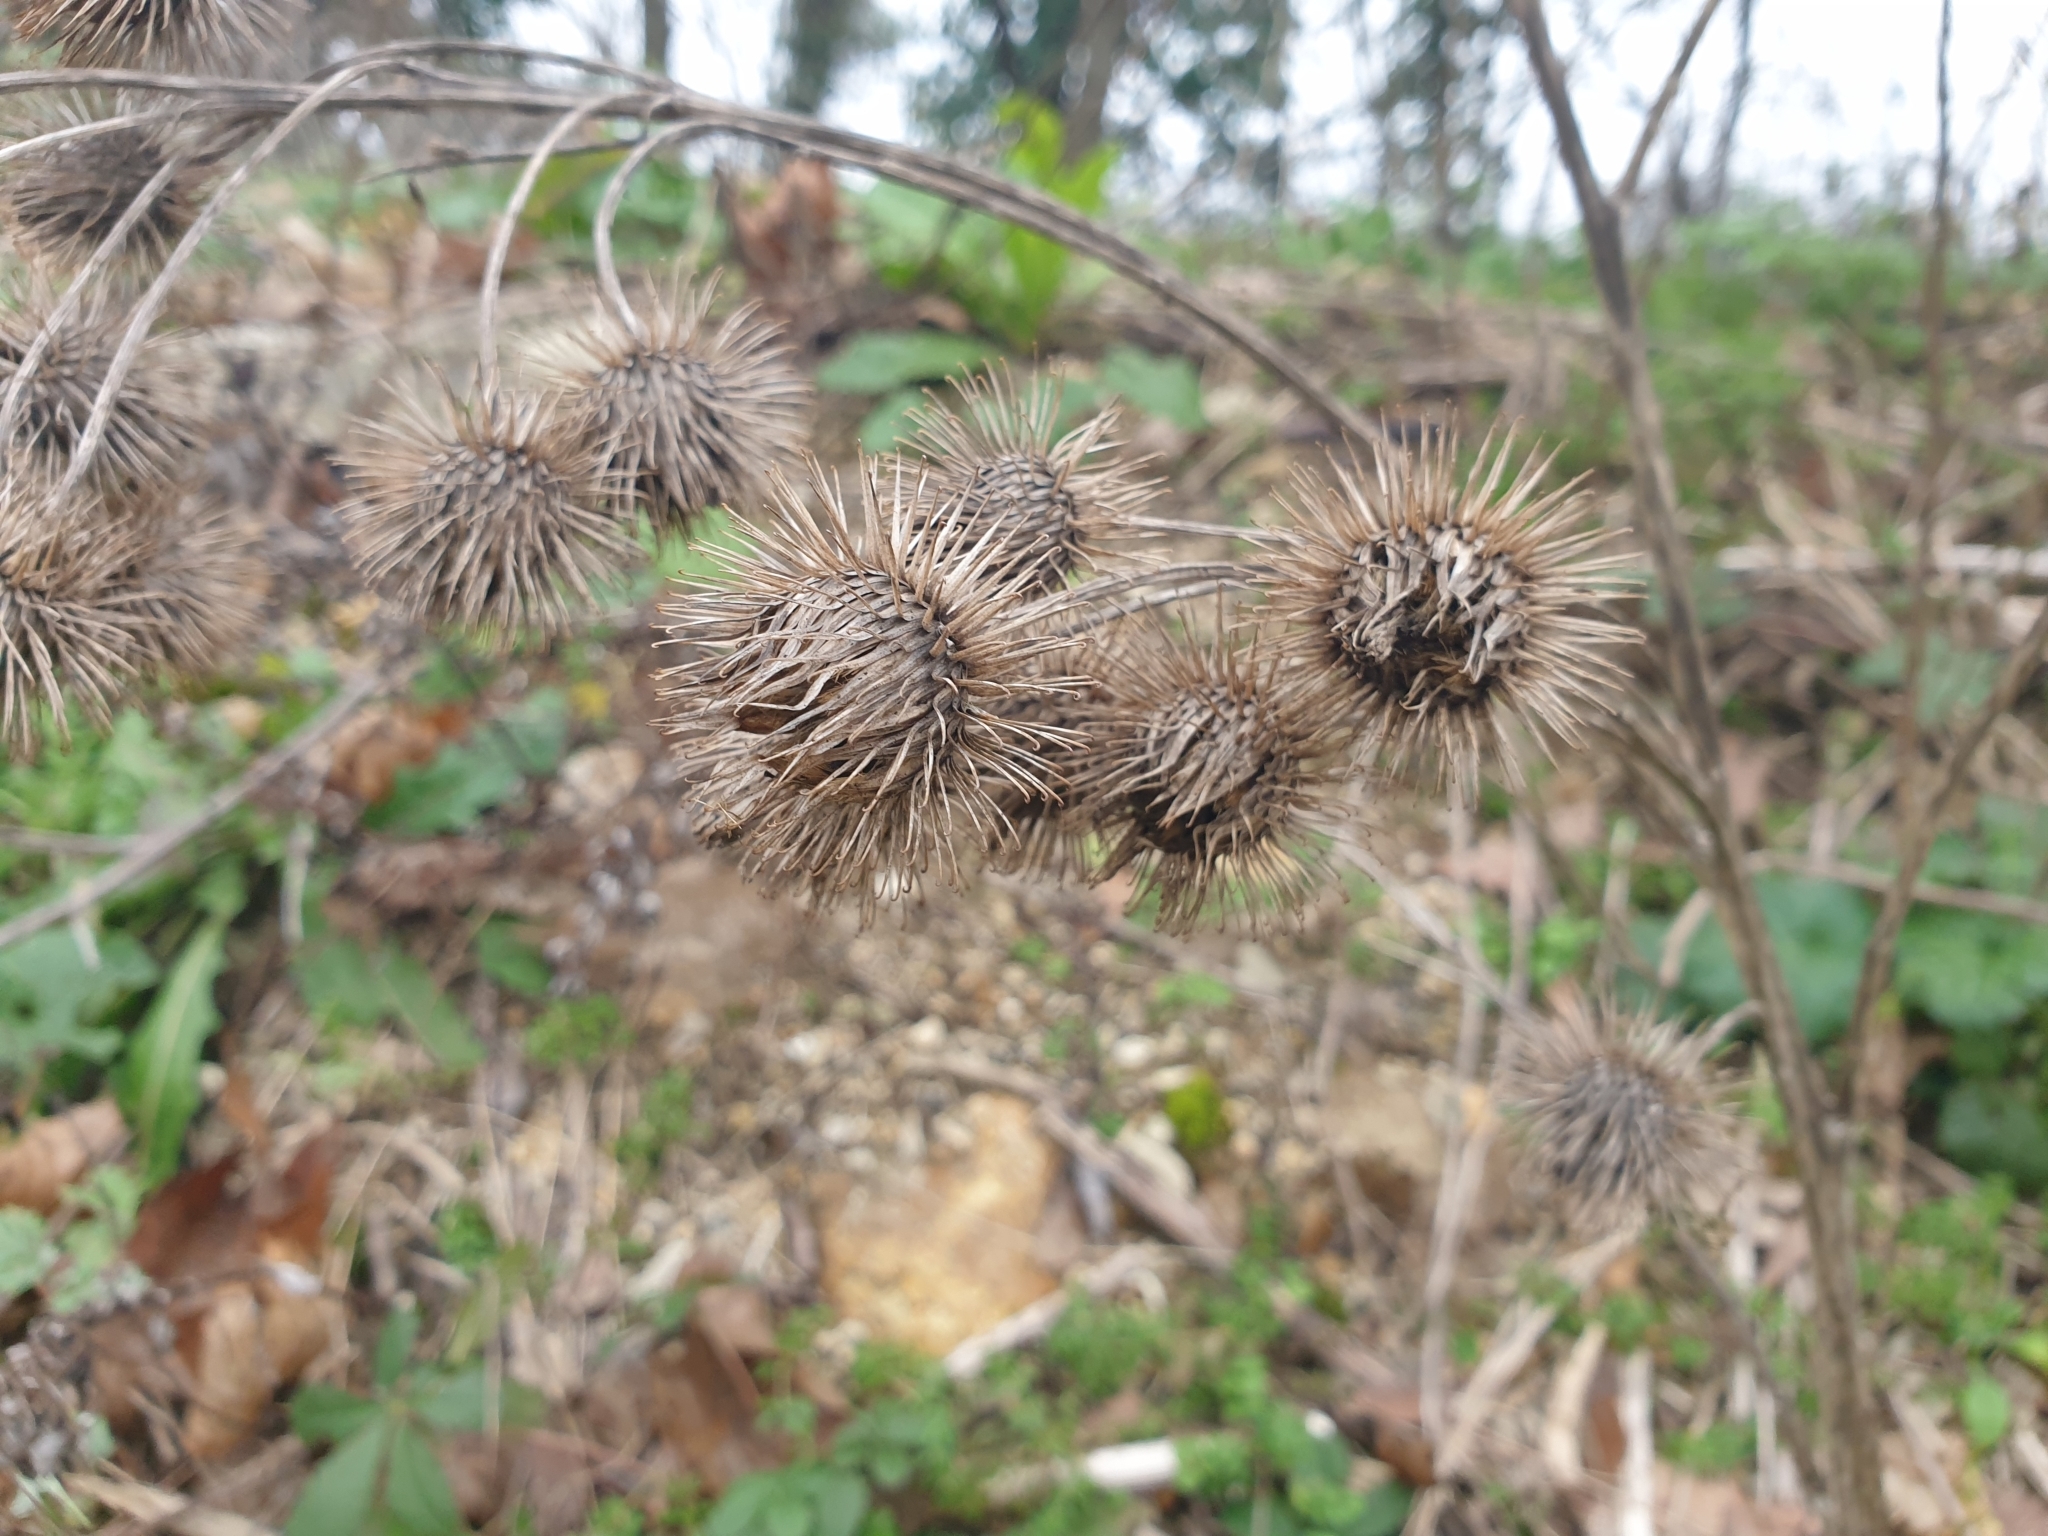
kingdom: Plantae
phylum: Tracheophyta
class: Magnoliopsida
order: Asterales
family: Asteraceae
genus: Arctium
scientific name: Arctium lappa
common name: Greater burdock
